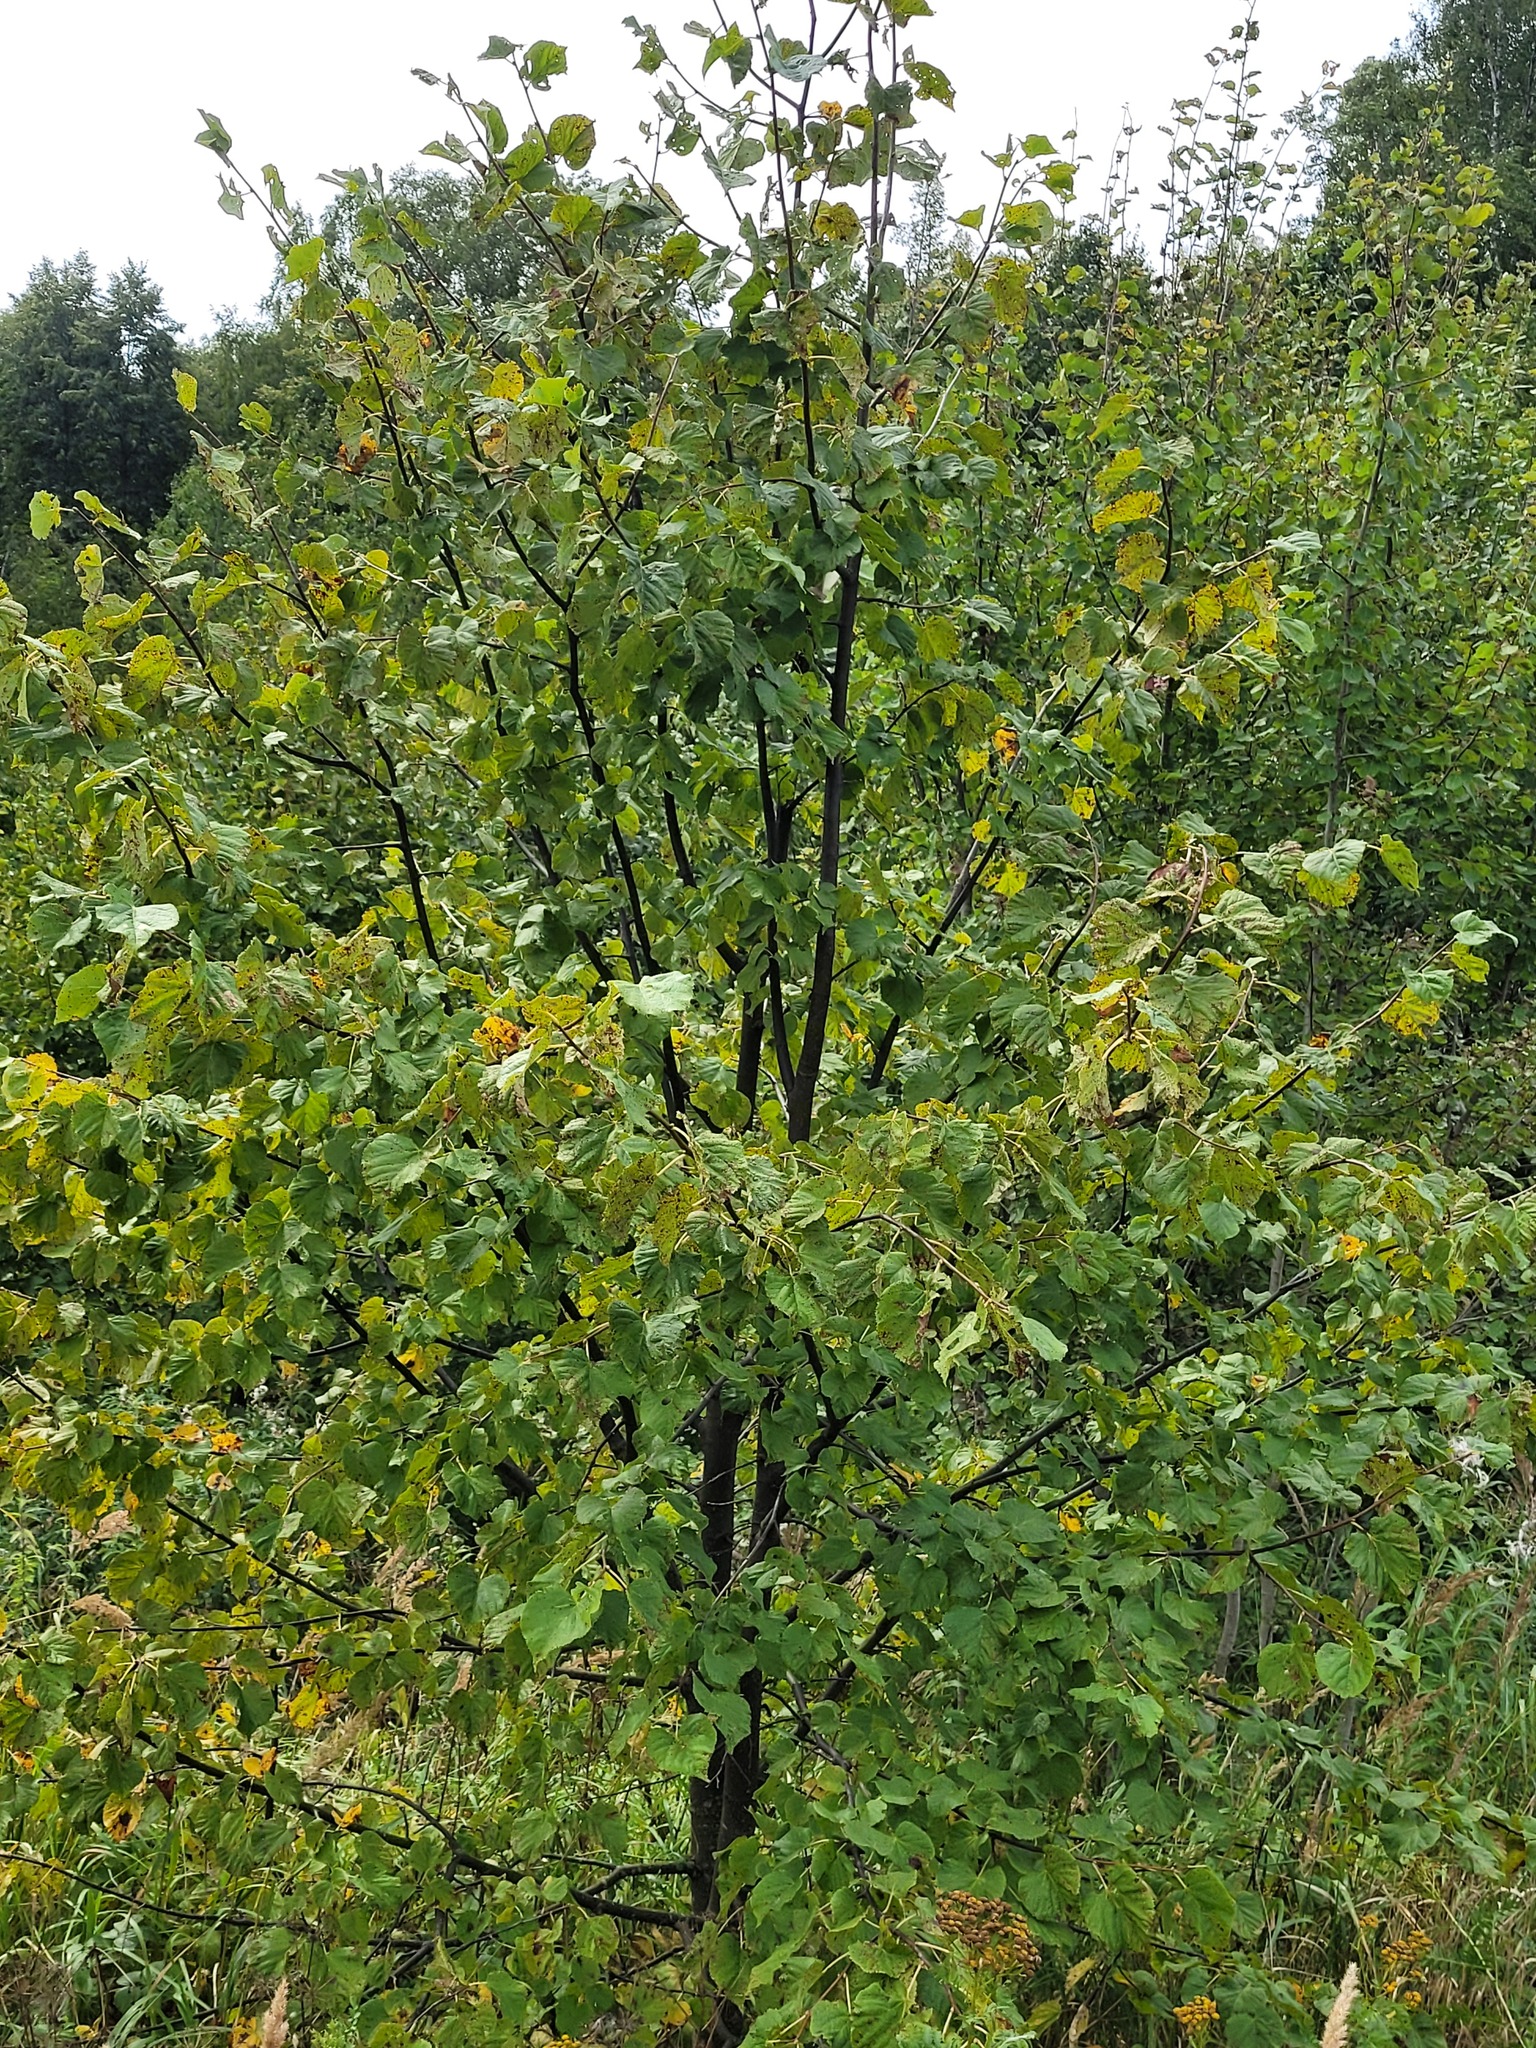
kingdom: Plantae
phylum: Tracheophyta
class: Magnoliopsida
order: Malvales
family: Malvaceae
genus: Tilia
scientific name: Tilia cordata
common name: Small-leaved lime
